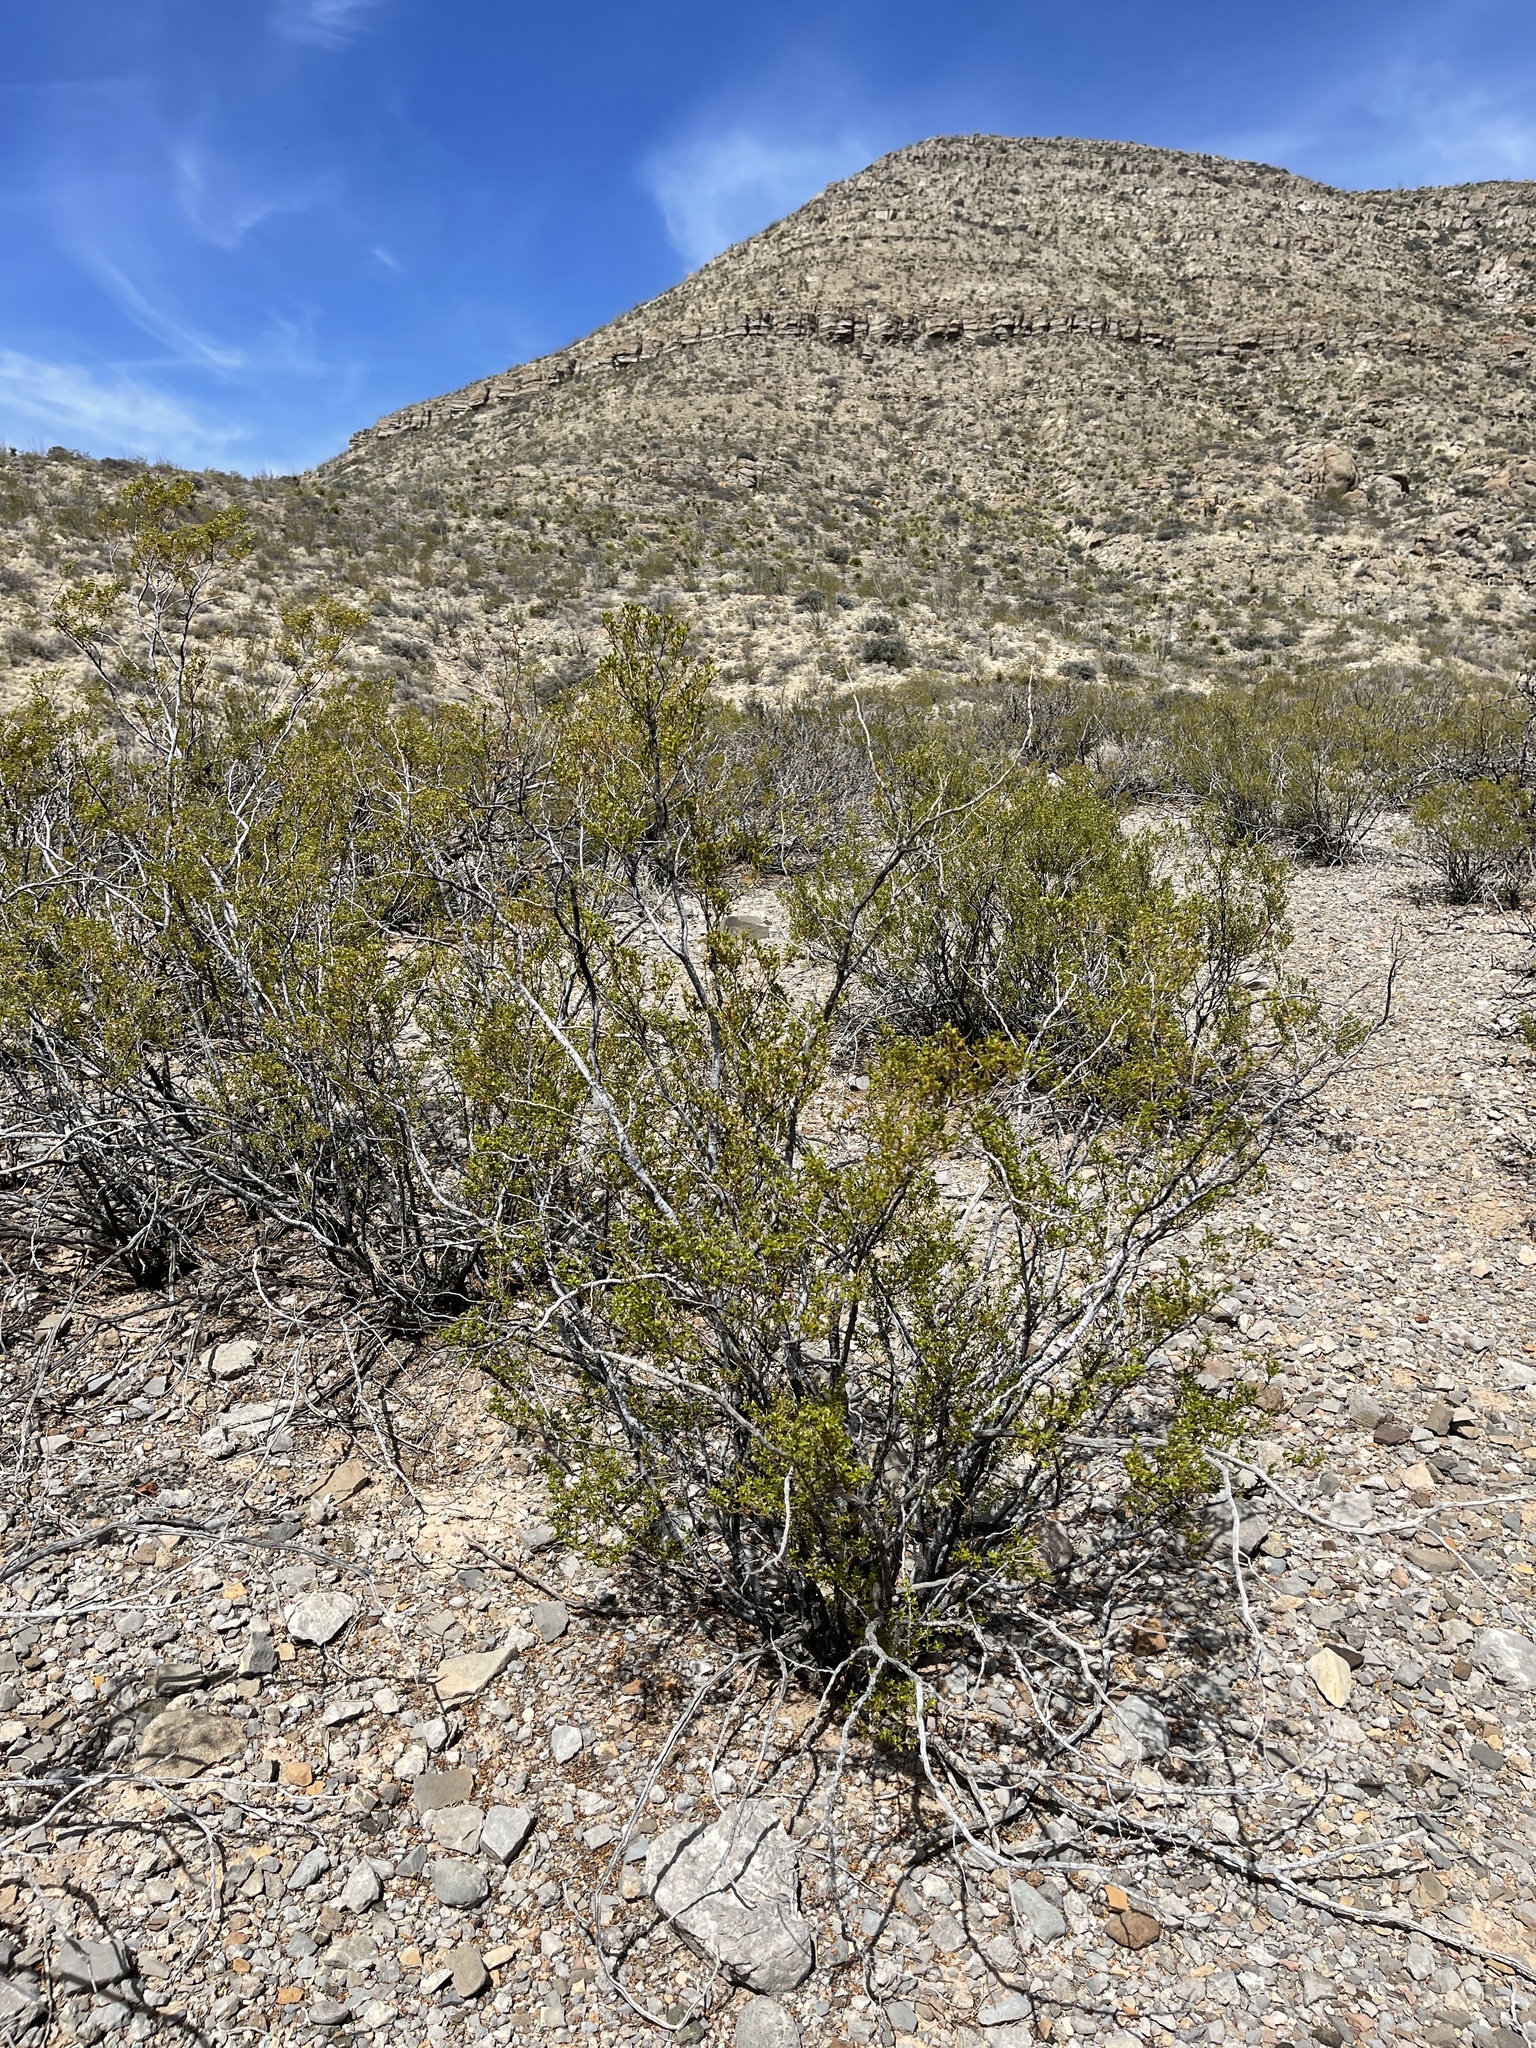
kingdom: Plantae
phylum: Tracheophyta
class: Magnoliopsida
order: Zygophyllales
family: Zygophyllaceae
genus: Larrea
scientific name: Larrea tridentata
